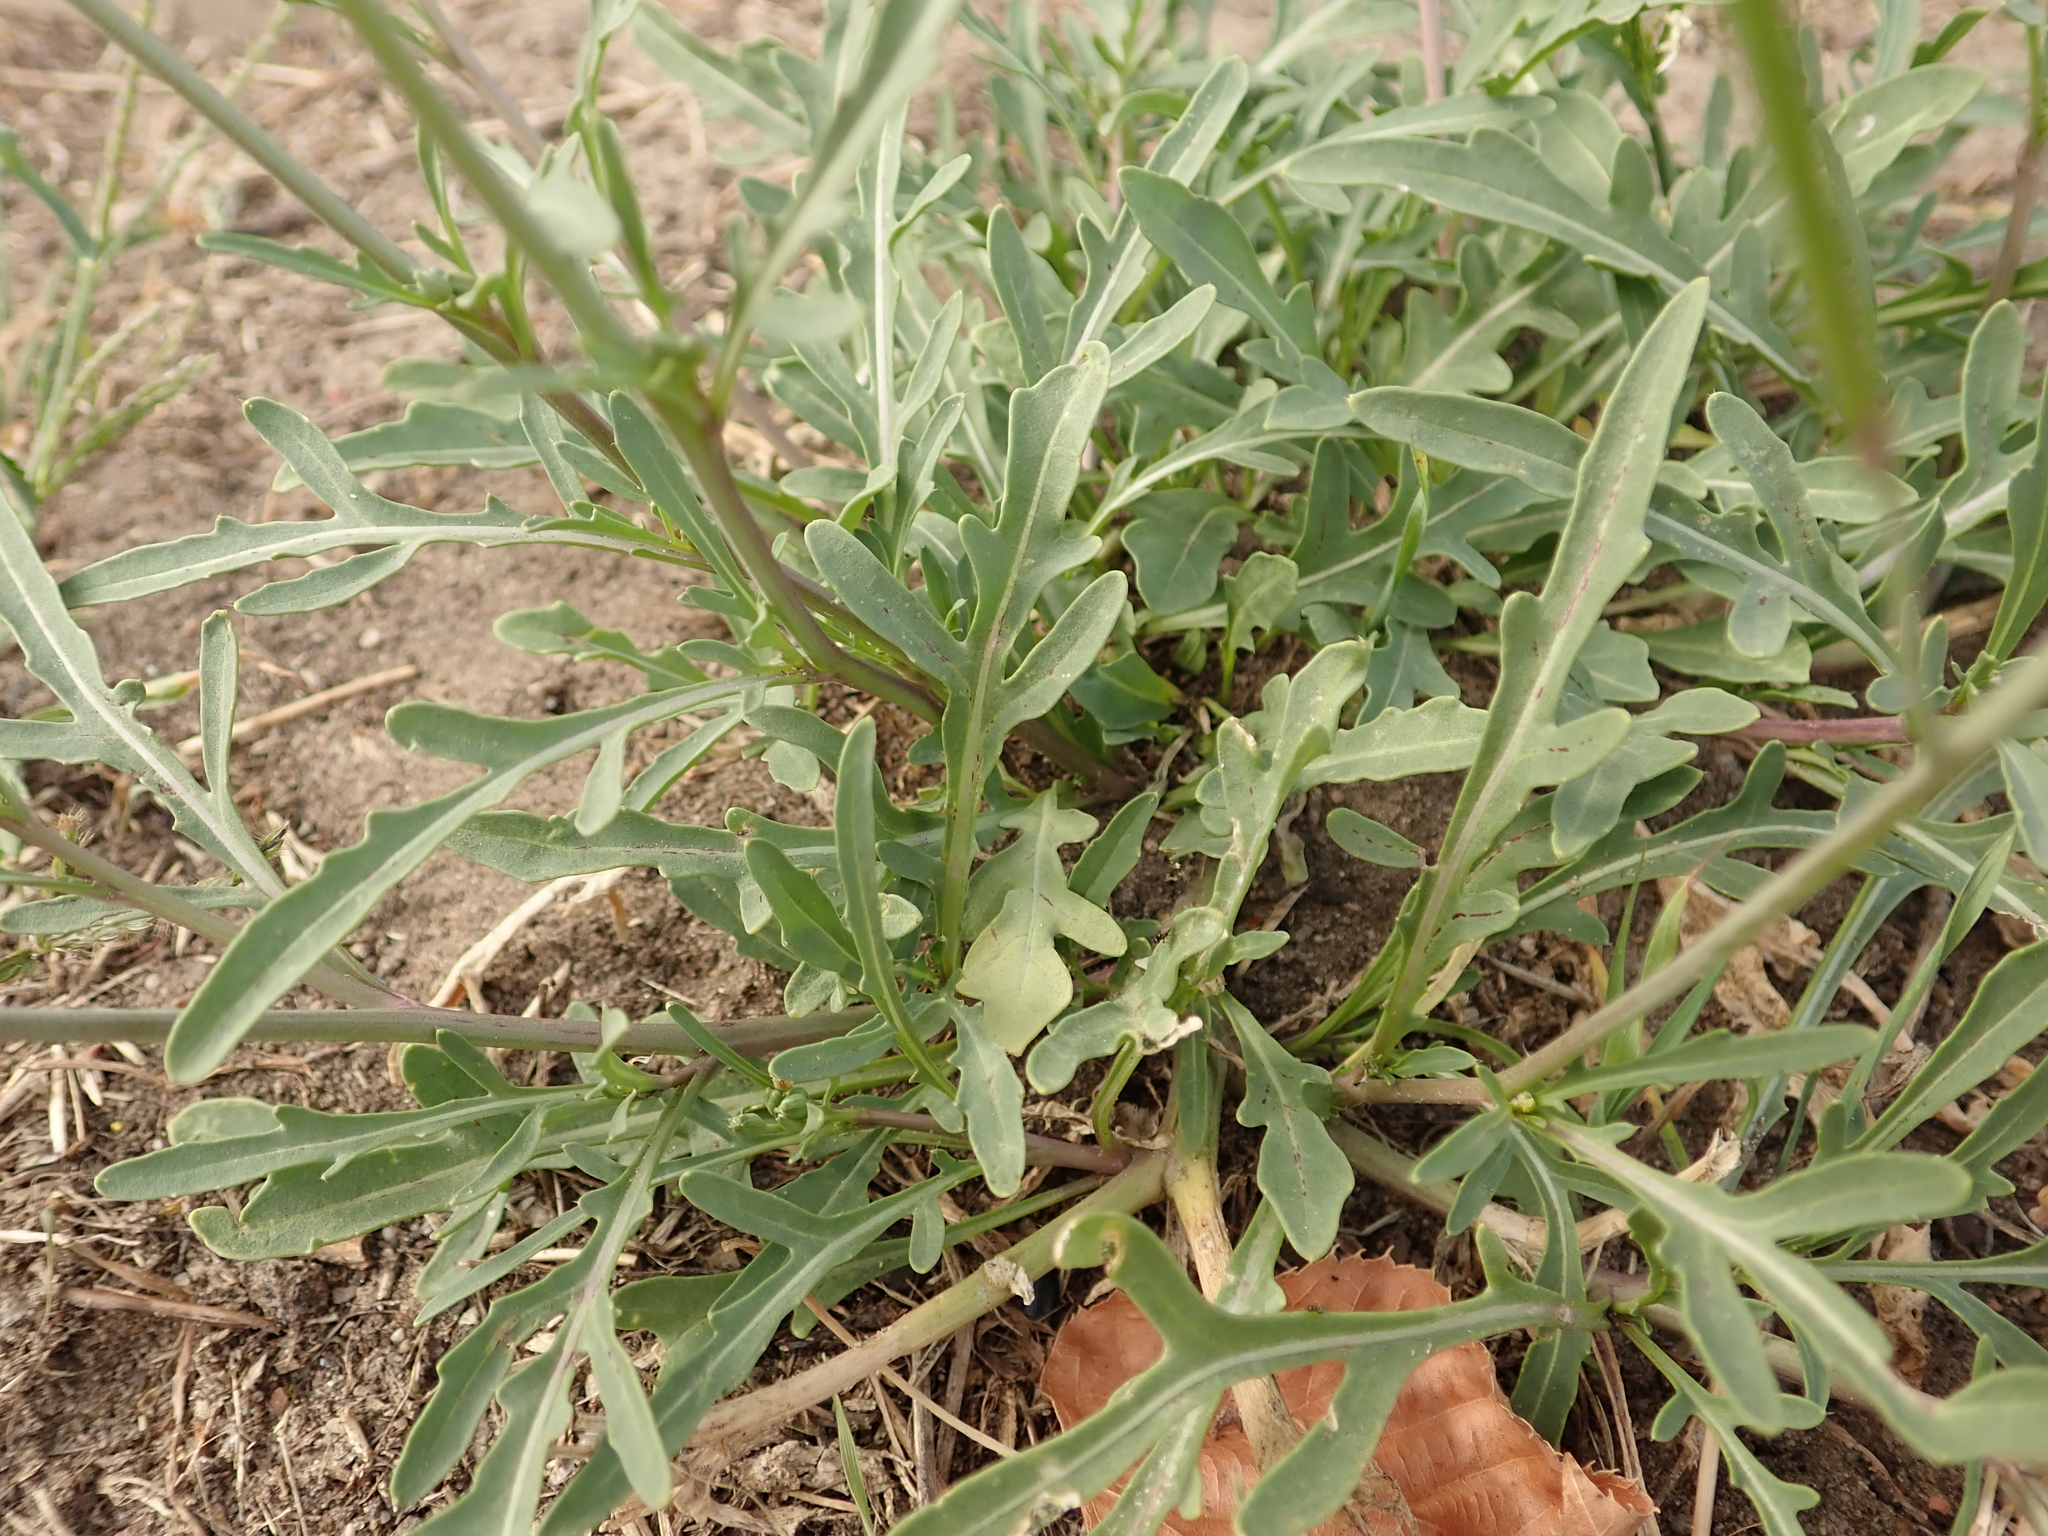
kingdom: Plantae
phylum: Tracheophyta
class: Magnoliopsida
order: Brassicales
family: Brassicaceae
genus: Diplotaxis
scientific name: Diplotaxis tenuifolia
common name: Perennial wall-rocket
